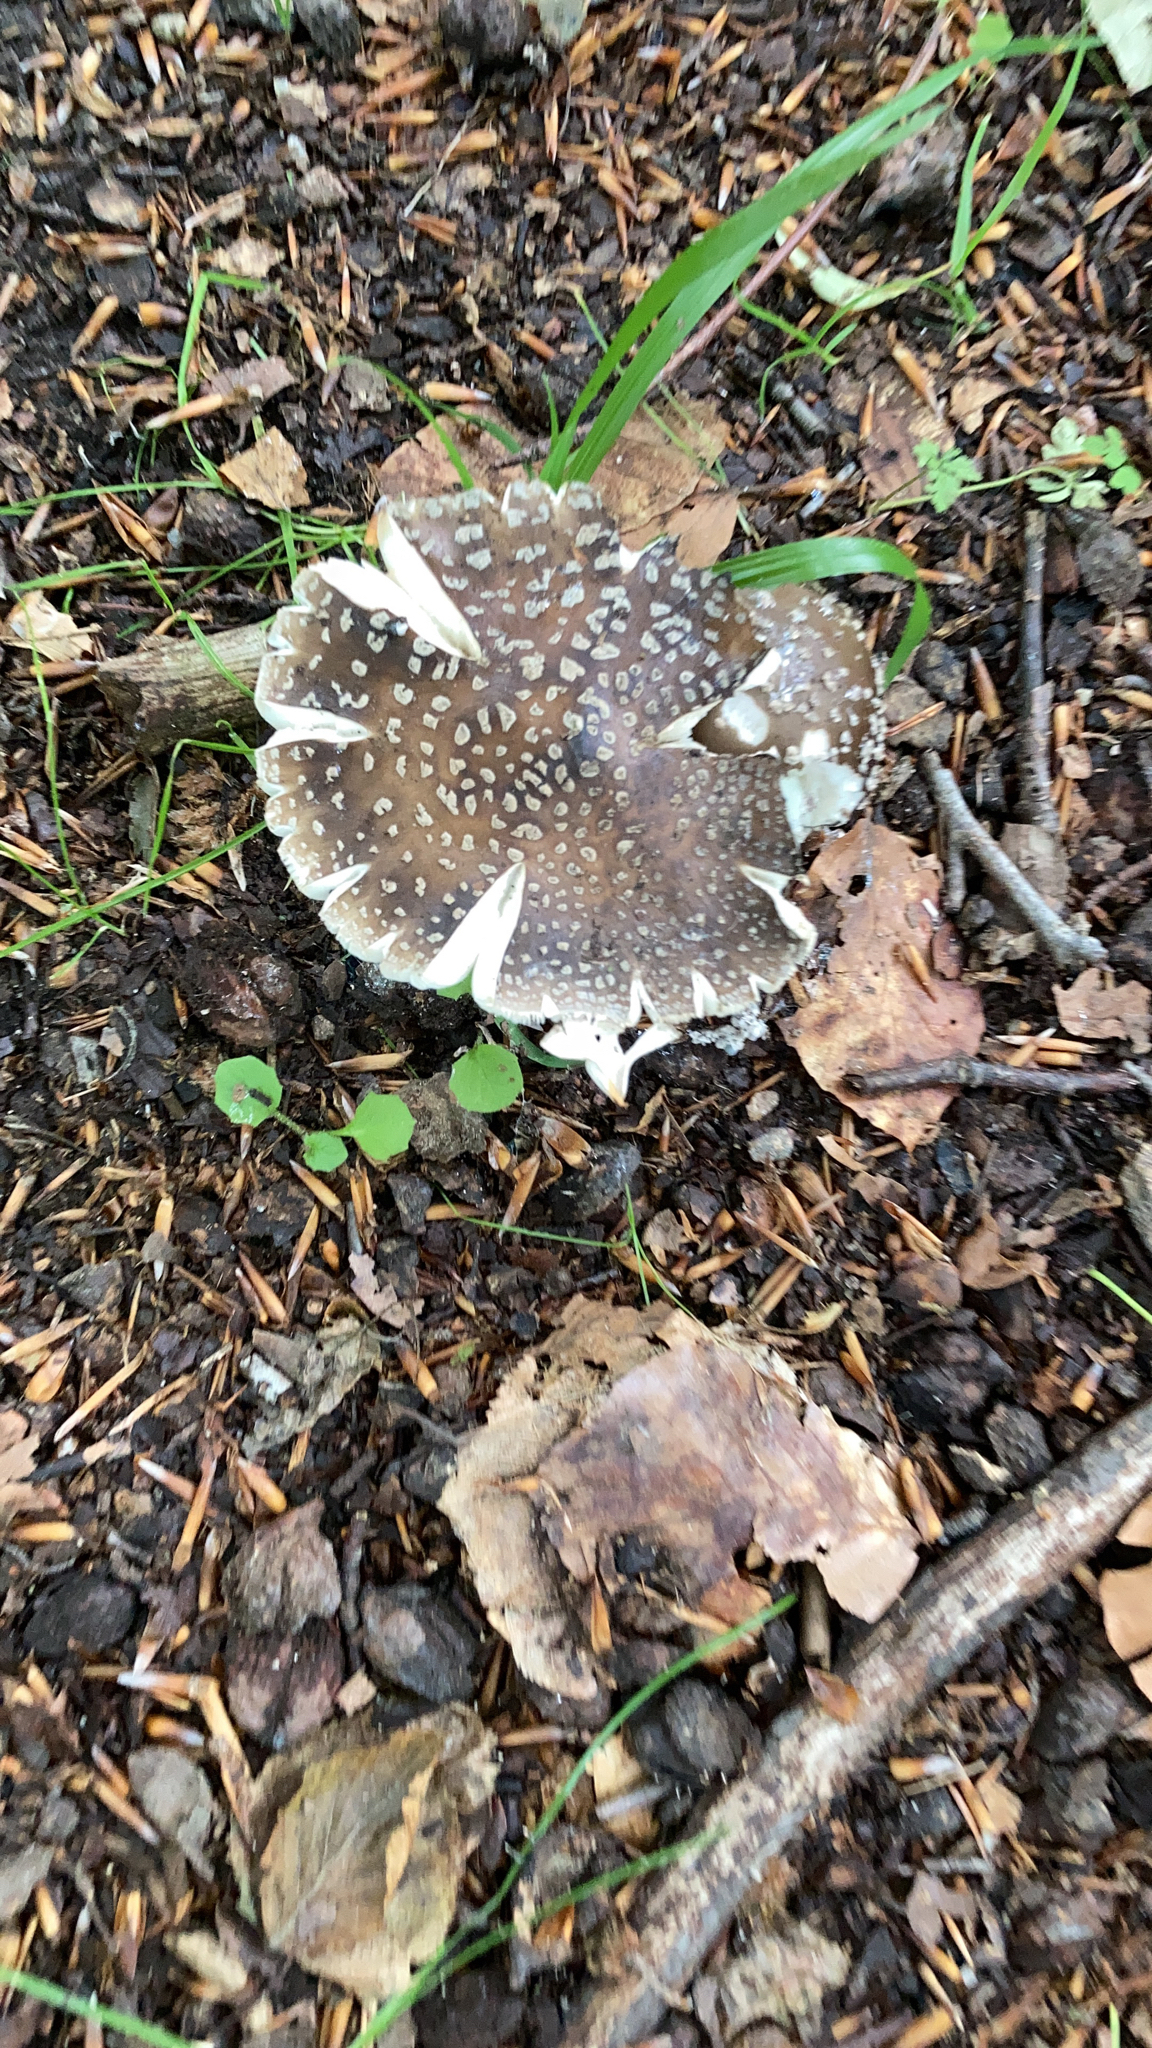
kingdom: Fungi
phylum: Basidiomycota
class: Agaricomycetes
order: Agaricales
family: Amanitaceae
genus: Amanita
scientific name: Amanita pantherina
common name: Panthercap
